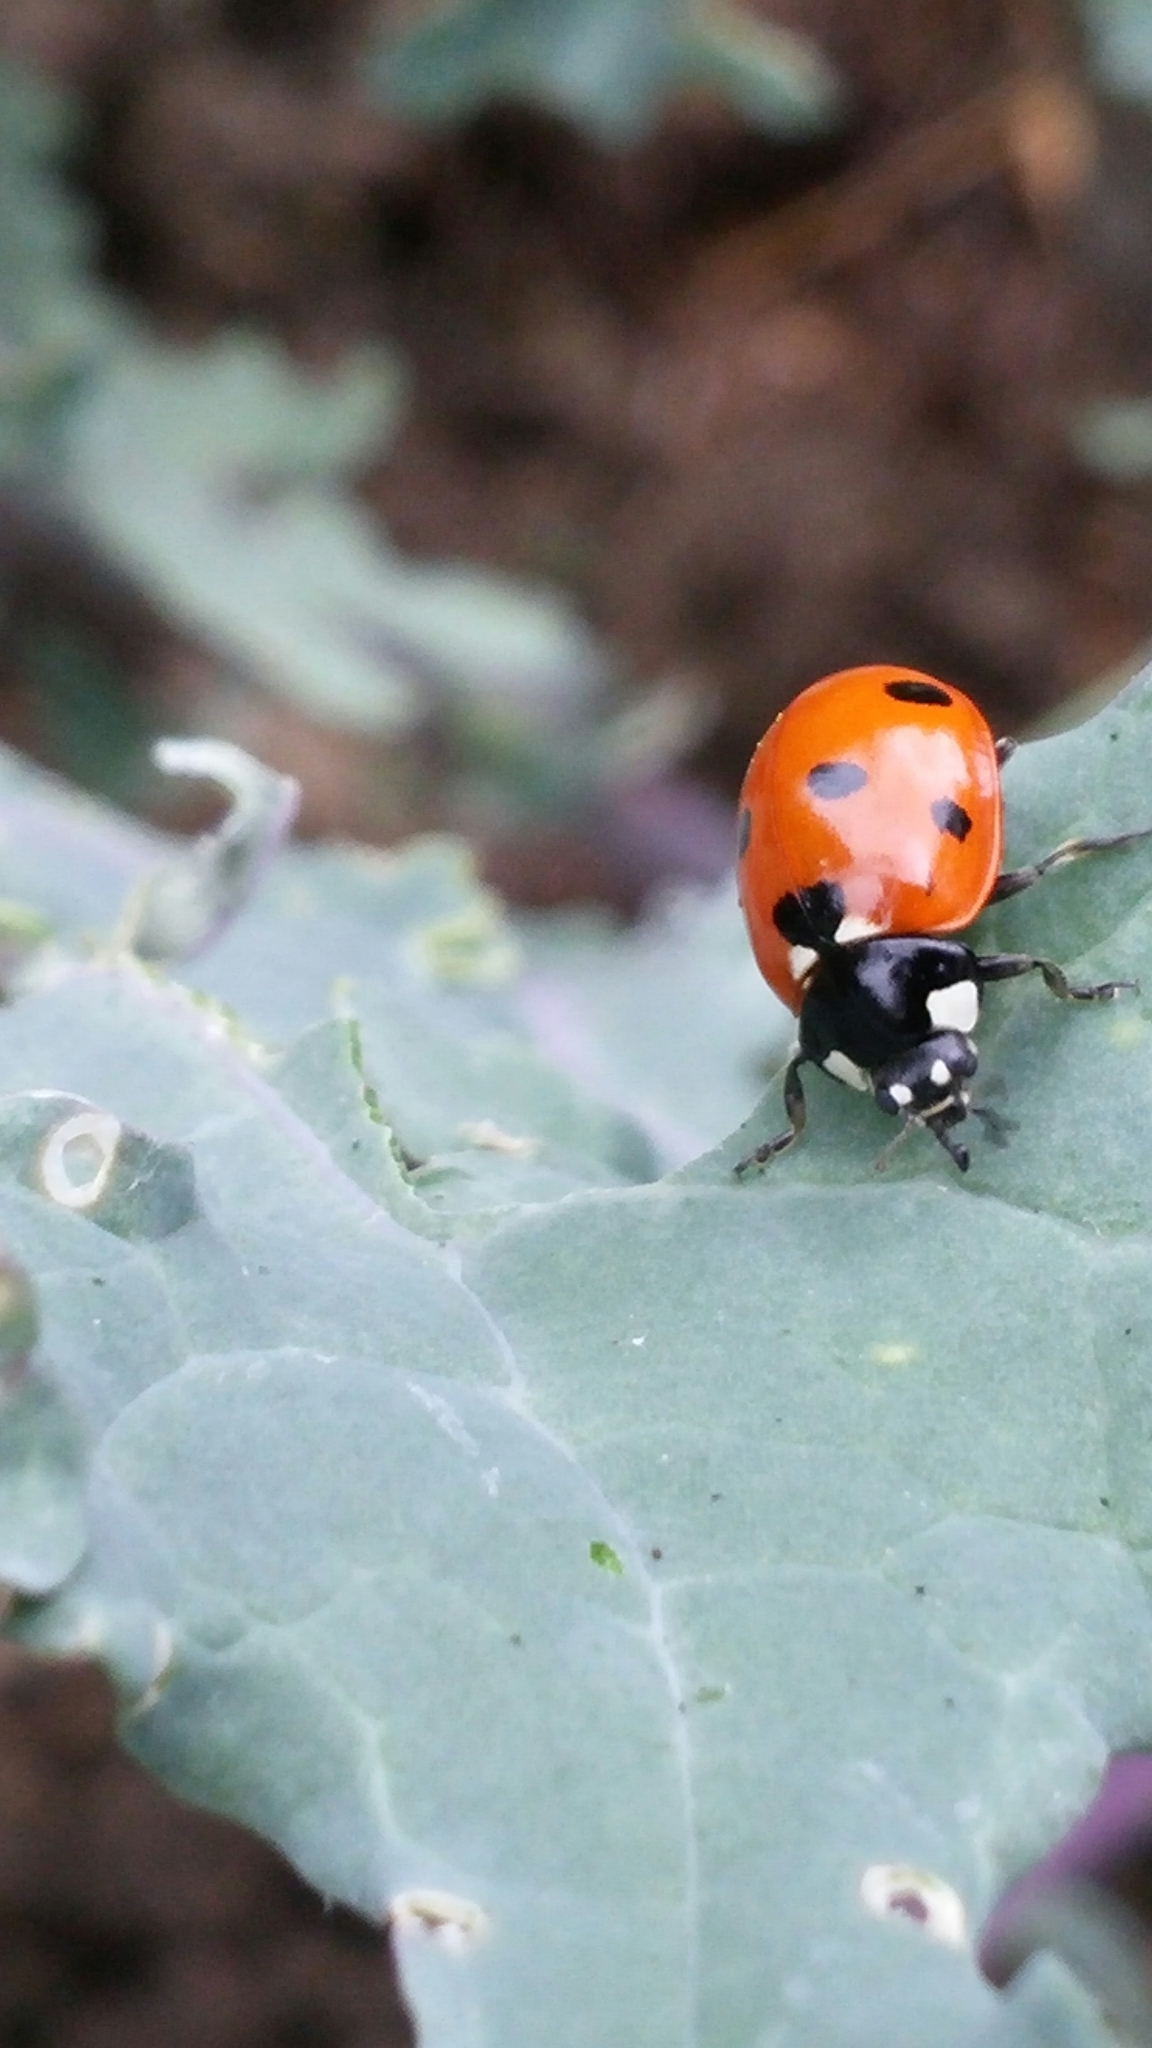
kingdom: Animalia
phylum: Arthropoda
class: Insecta
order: Coleoptera
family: Coccinellidae
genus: Coccinella
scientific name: Coccinella septempunctata
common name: Sevenspotted lady beetle
